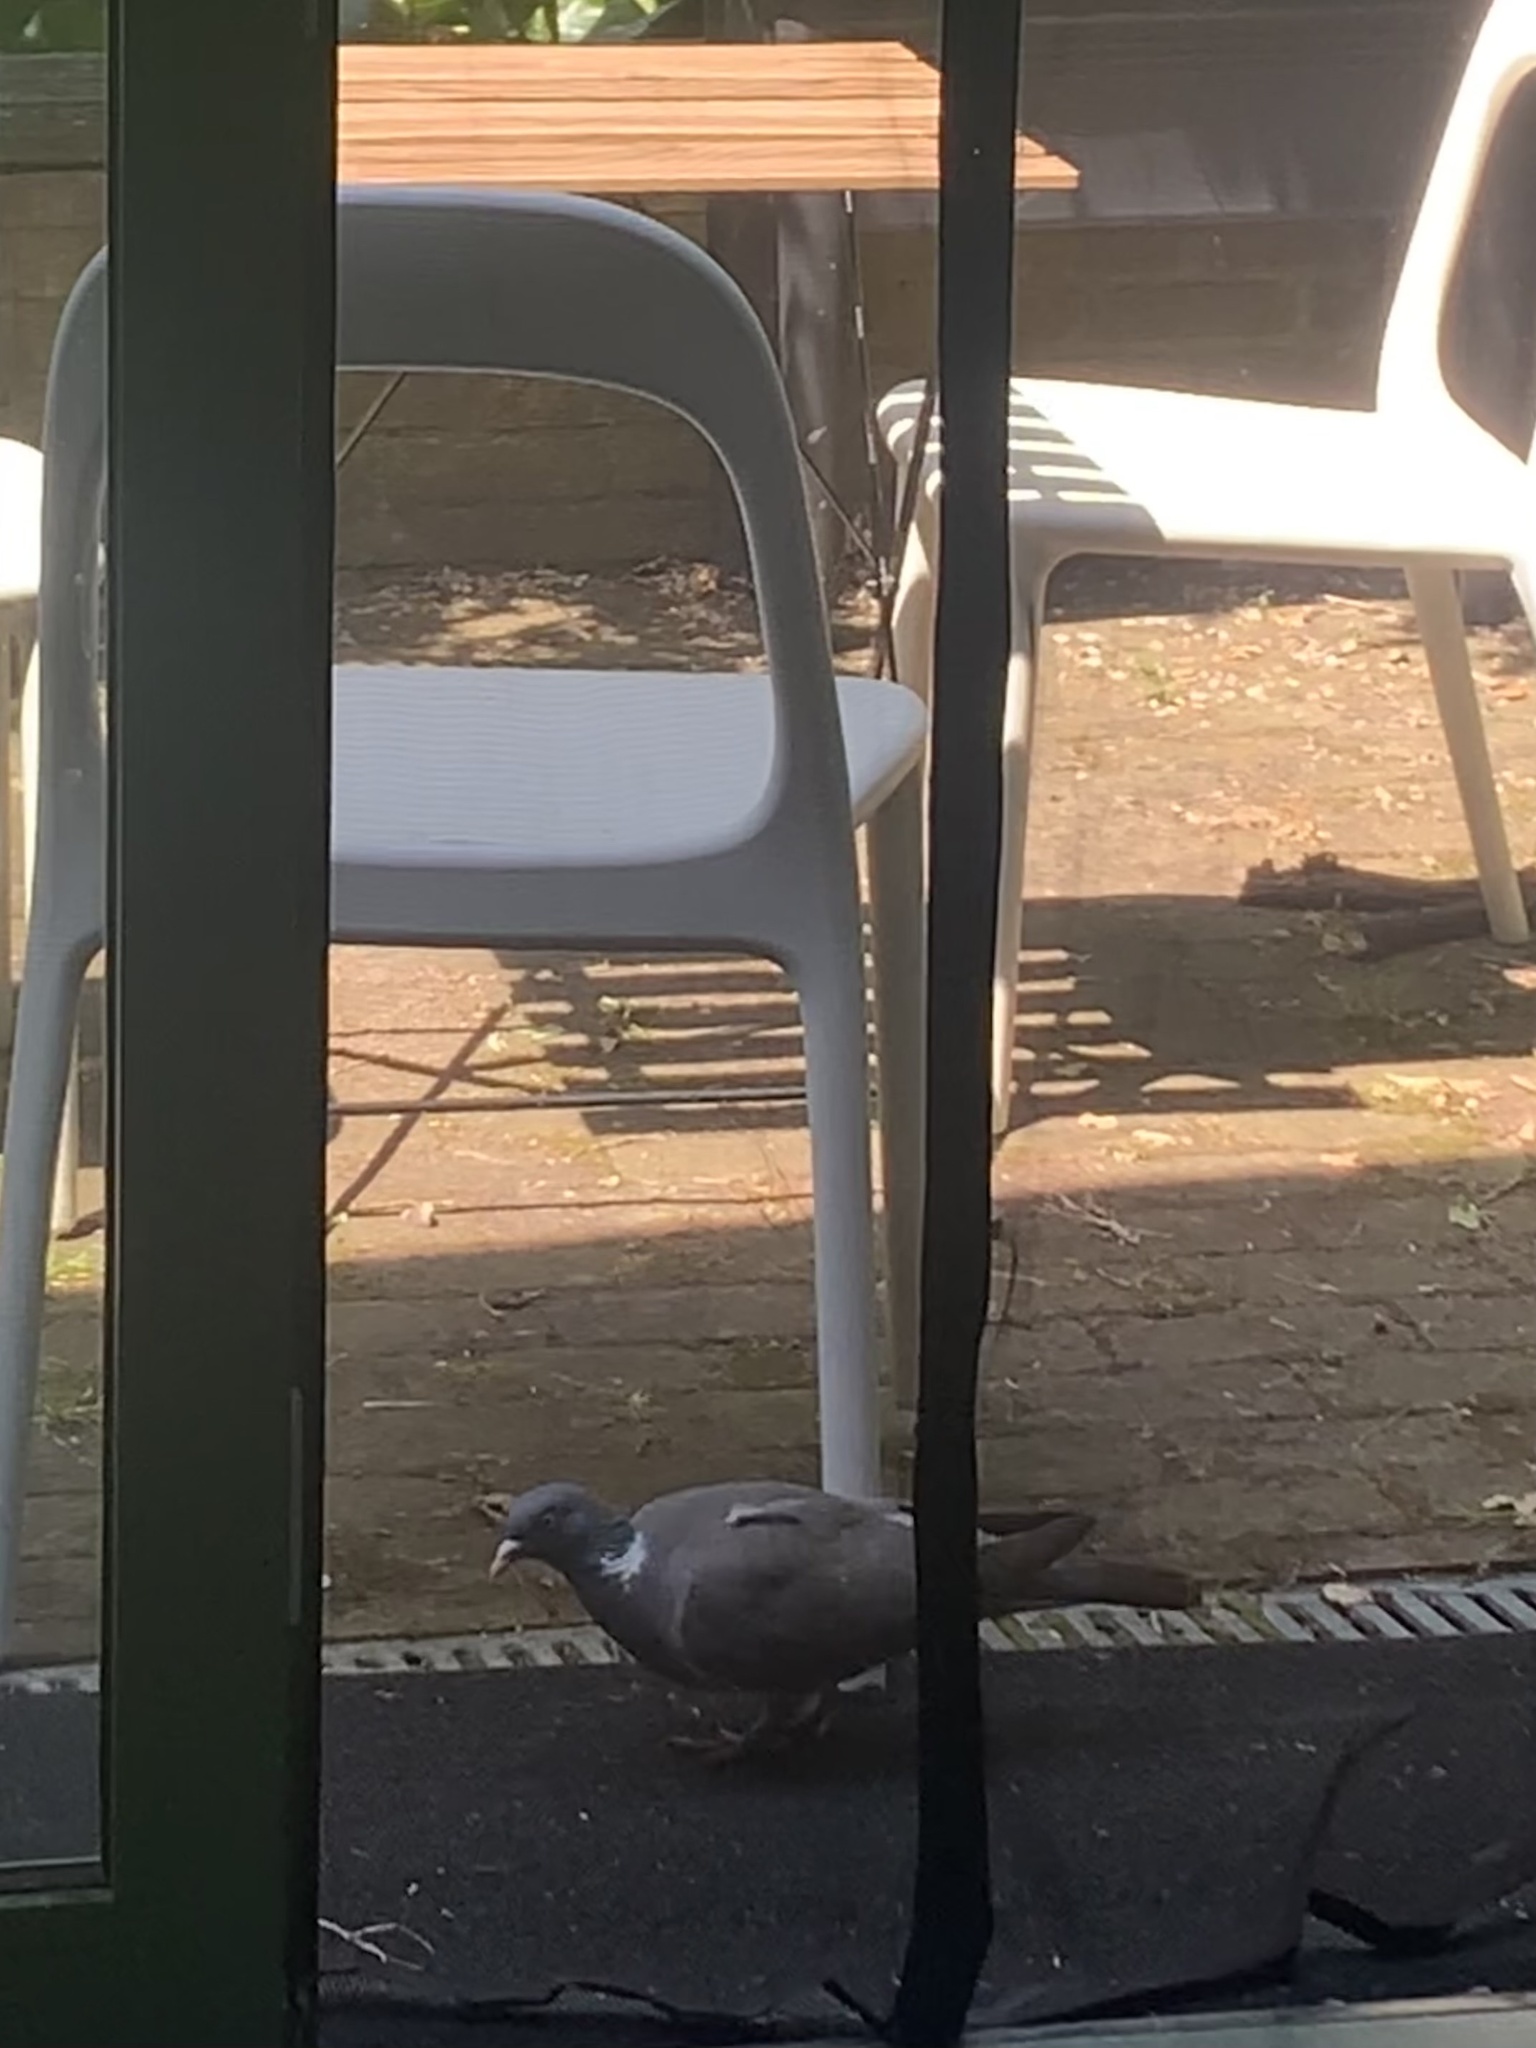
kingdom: Animalia
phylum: Chordata
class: Aves
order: Columbiformes
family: Columbidae
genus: Columba
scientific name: Columba palumbus
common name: Common wood pigeon
